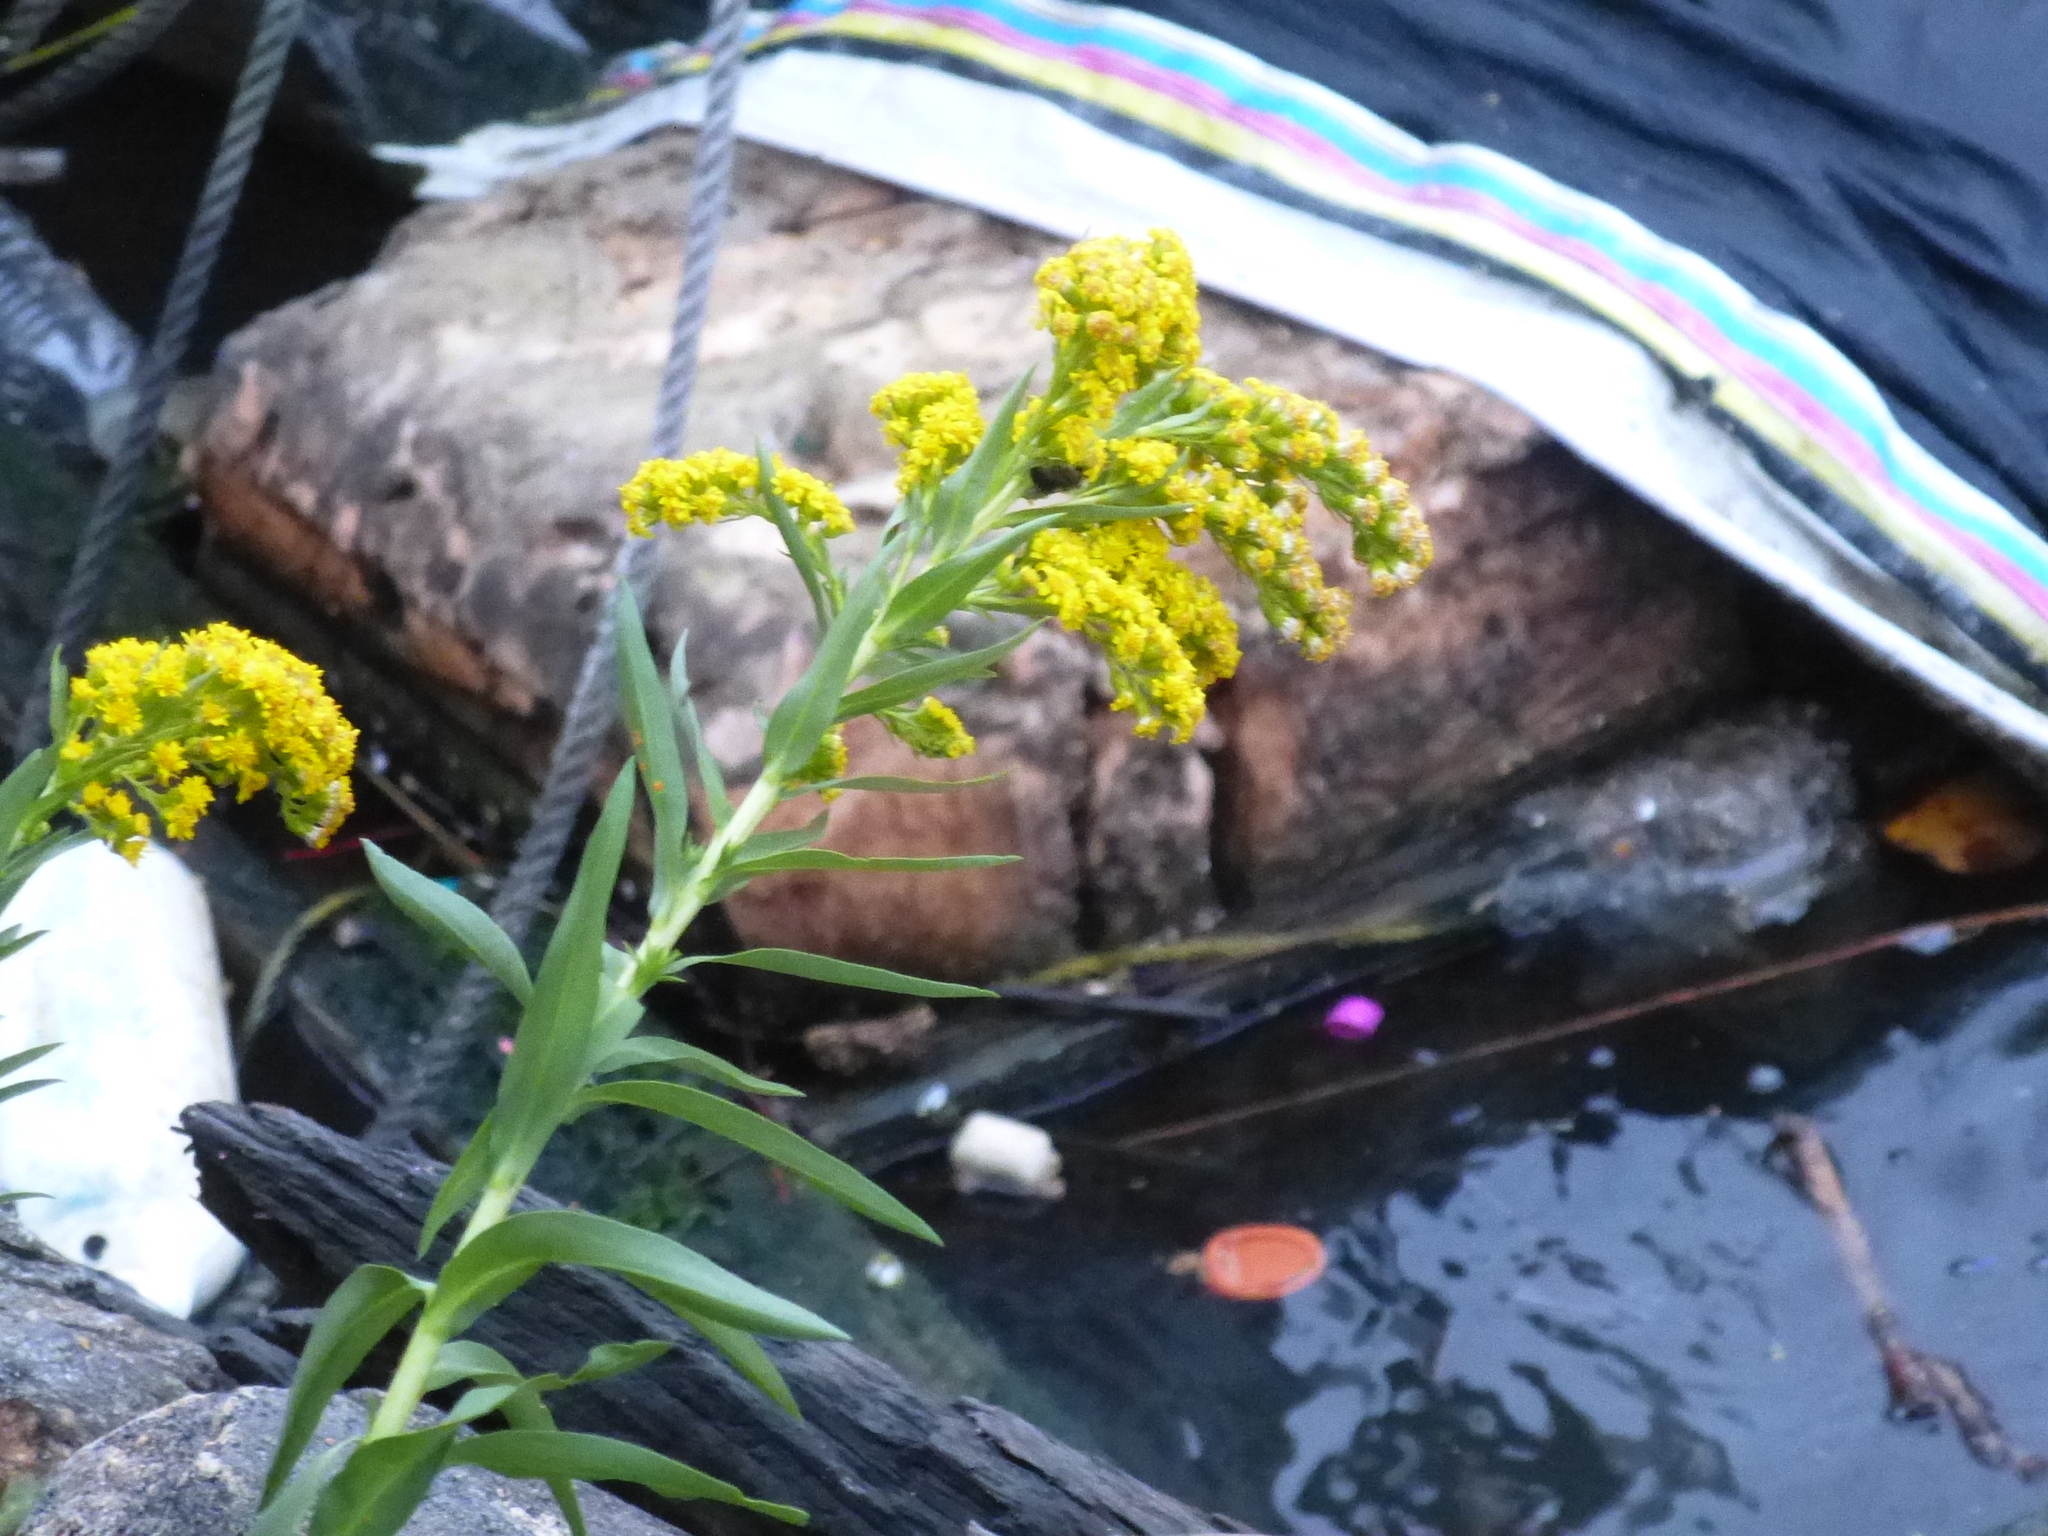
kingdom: Plantae
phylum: Tracheophyta
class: Magnoliopsida
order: Asterales
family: Asteraceae
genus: Solidago
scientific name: Solidago sempervirens
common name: Salt-marsh goldenrod
